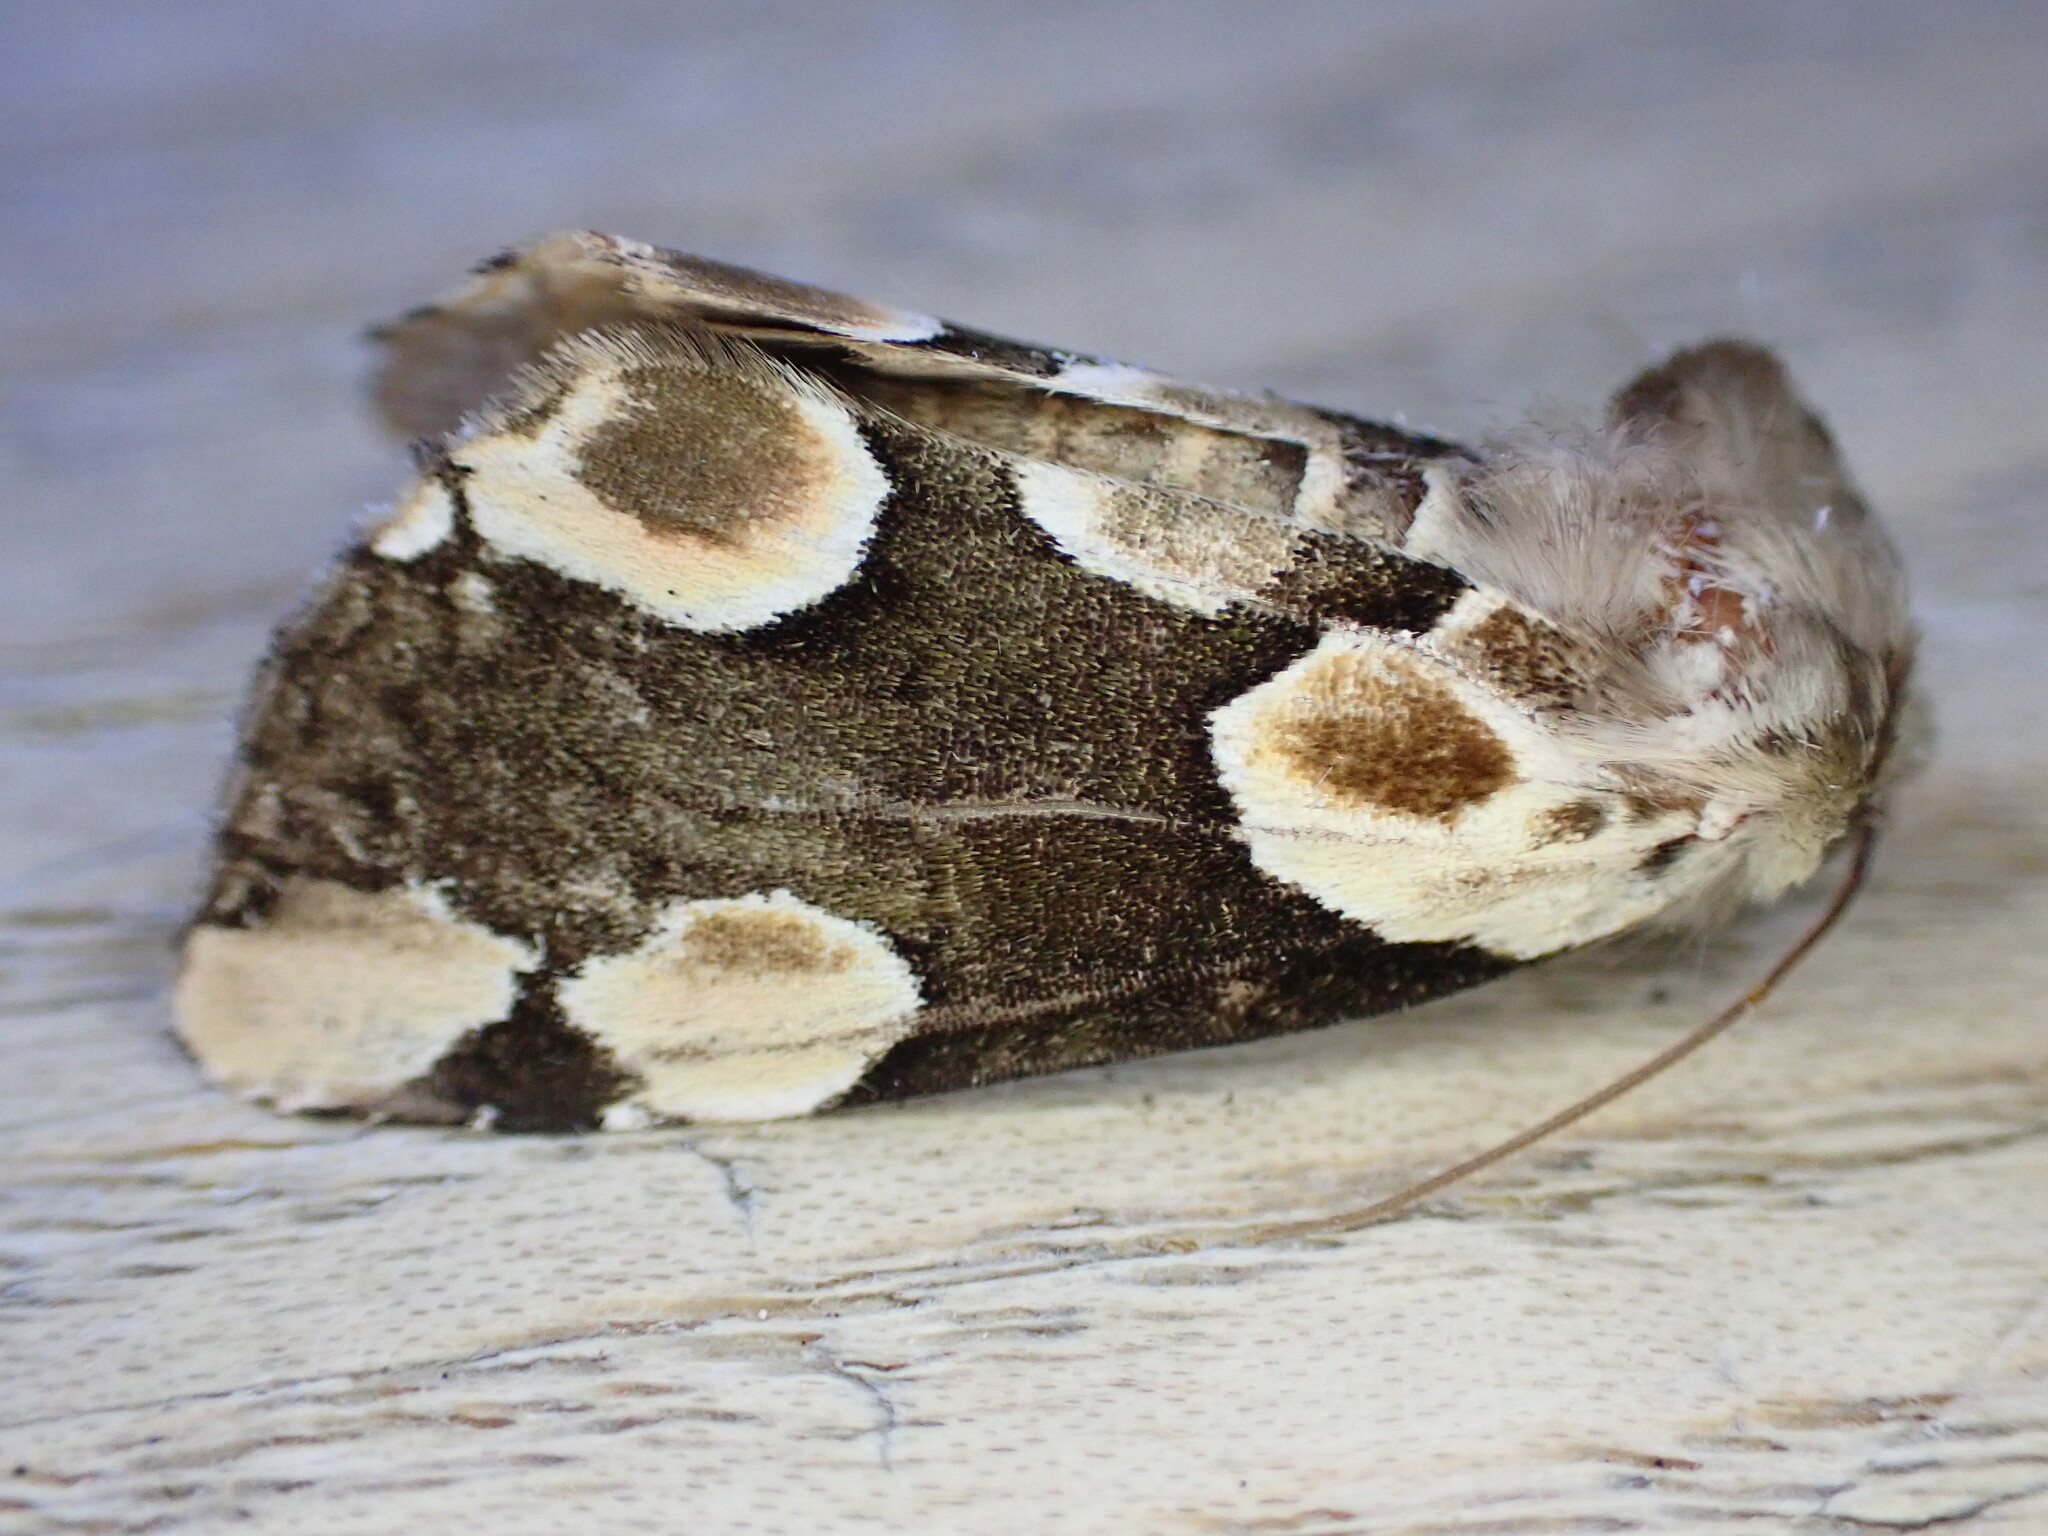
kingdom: Animalia
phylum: Arthropoda
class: Insecta
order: Lepidoptera
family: Drepanidae
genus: Thyatira
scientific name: Thyatira batis
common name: Peach blossom
